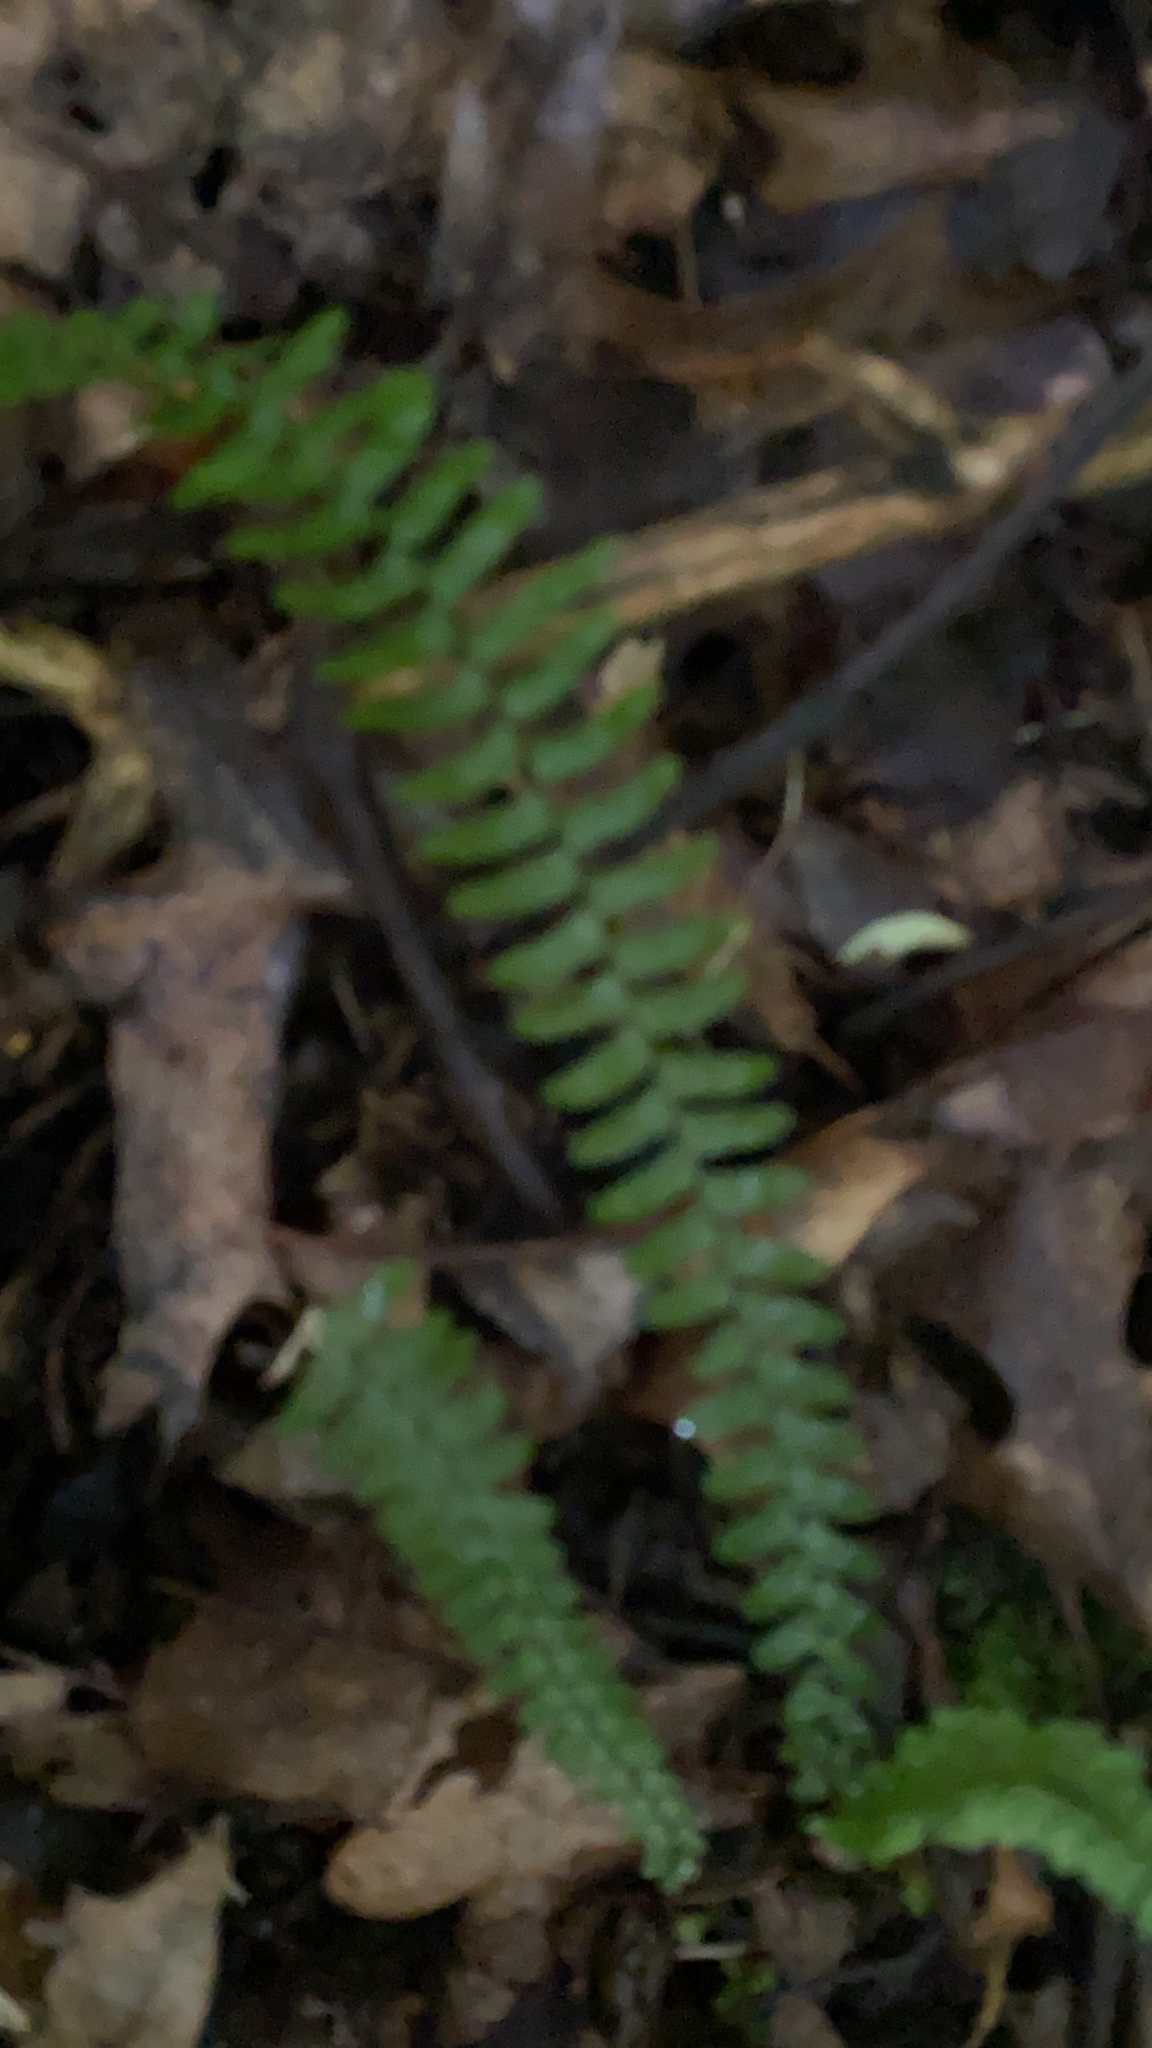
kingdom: Plantae
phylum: Tracheophyta
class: Polypodiopsida
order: Polypodiales
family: Aspleniaceae
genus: Asplenium
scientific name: Asplenium platyneuron
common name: Ebony spleenwort
